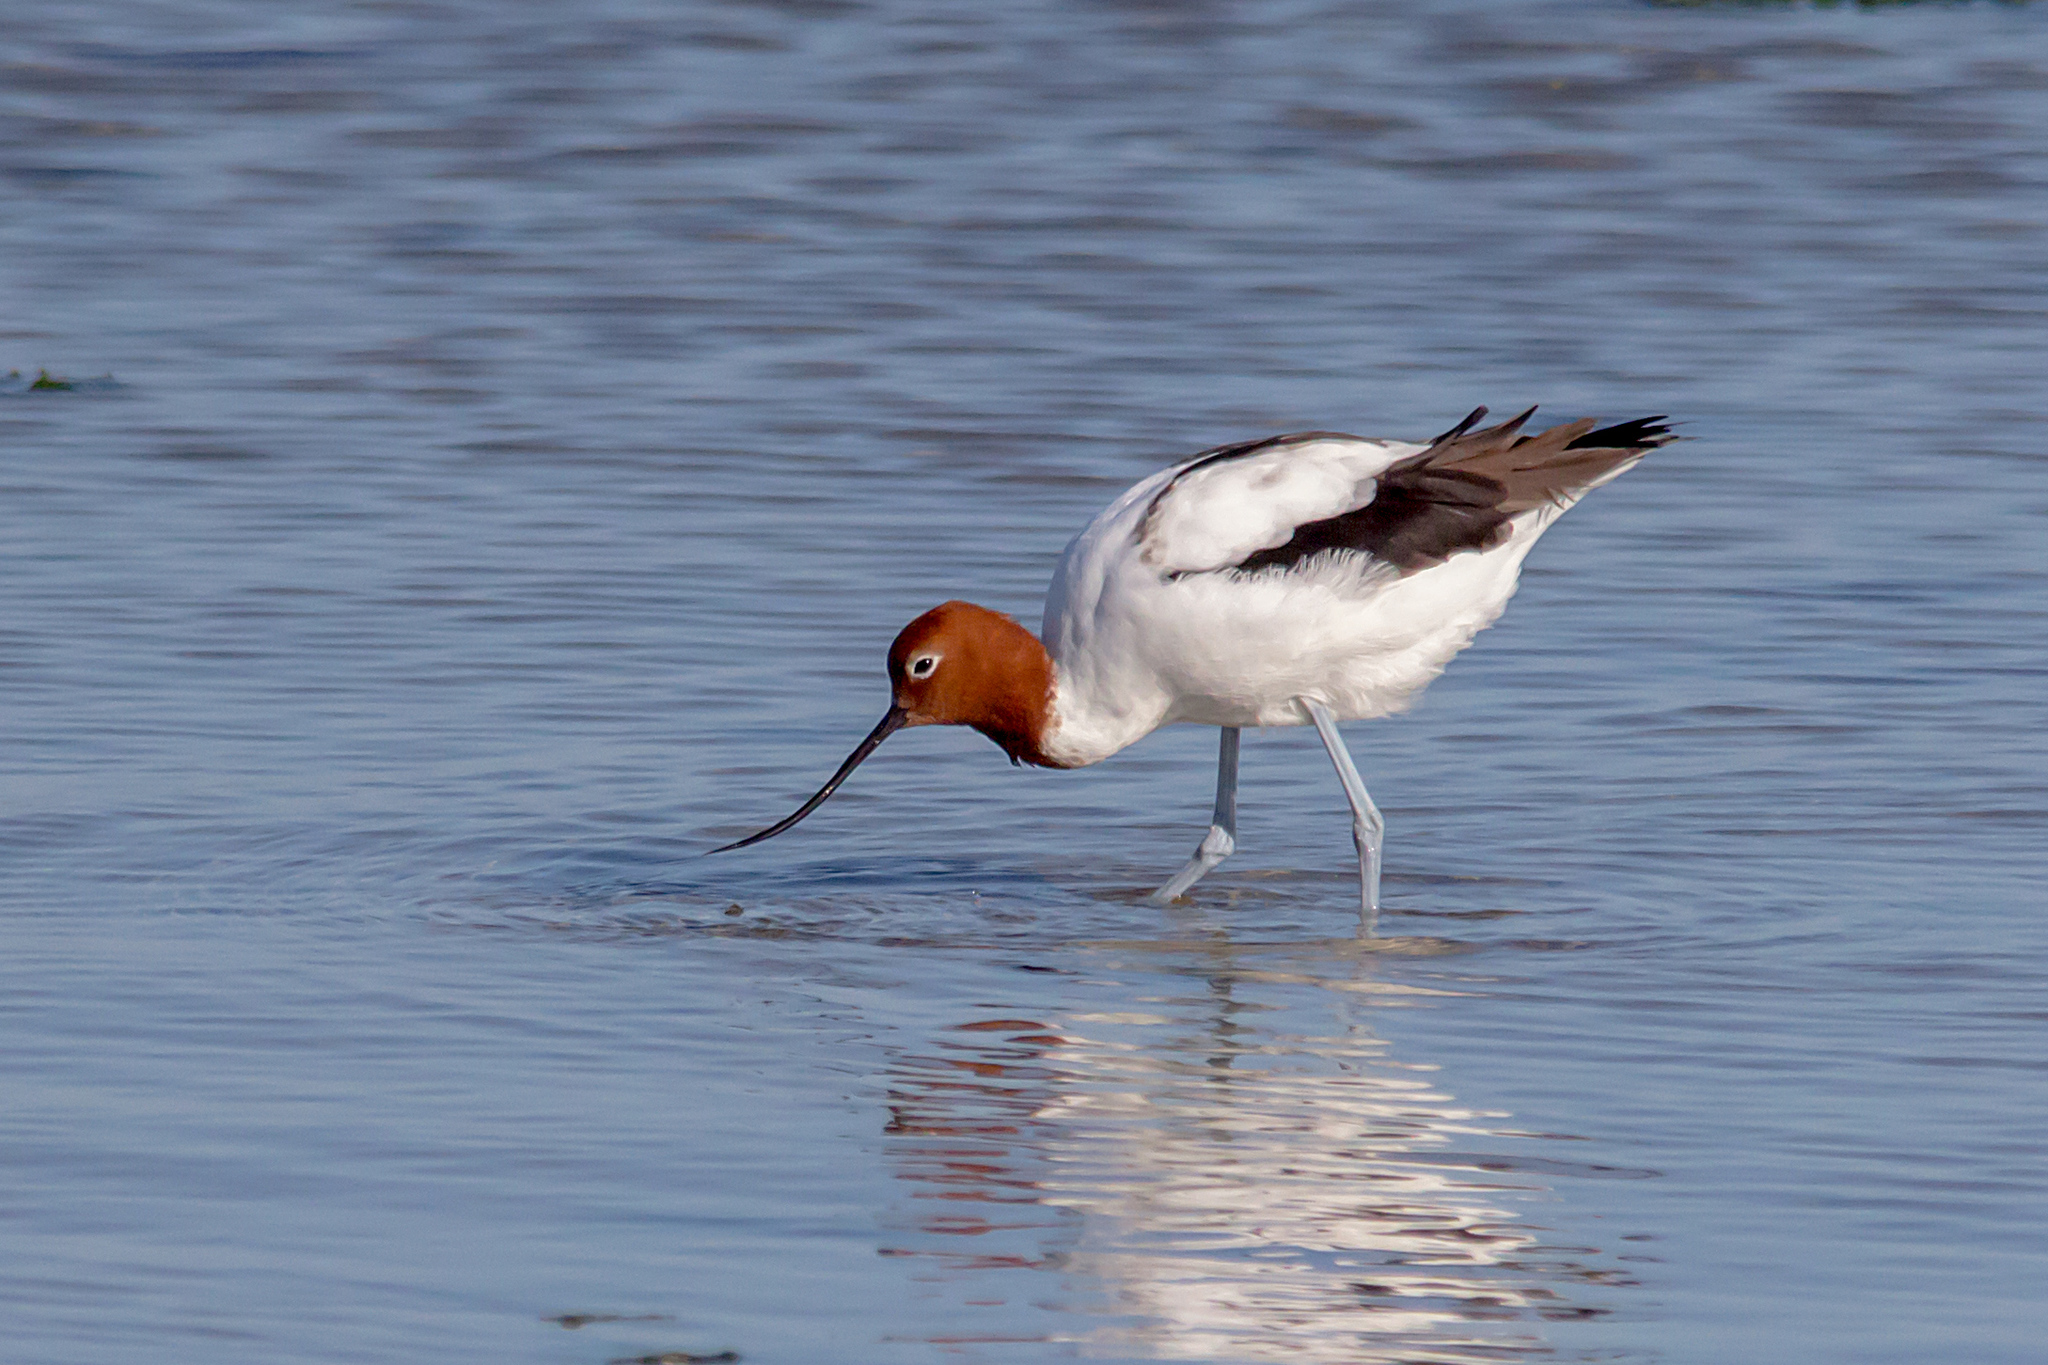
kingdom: Animalia
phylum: Chordata
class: Aves
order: Charadriiformes
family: Recurvirostridae
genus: Recurvirostra
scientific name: Recurvirostra novaehollandiae
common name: Red-necked avocet
